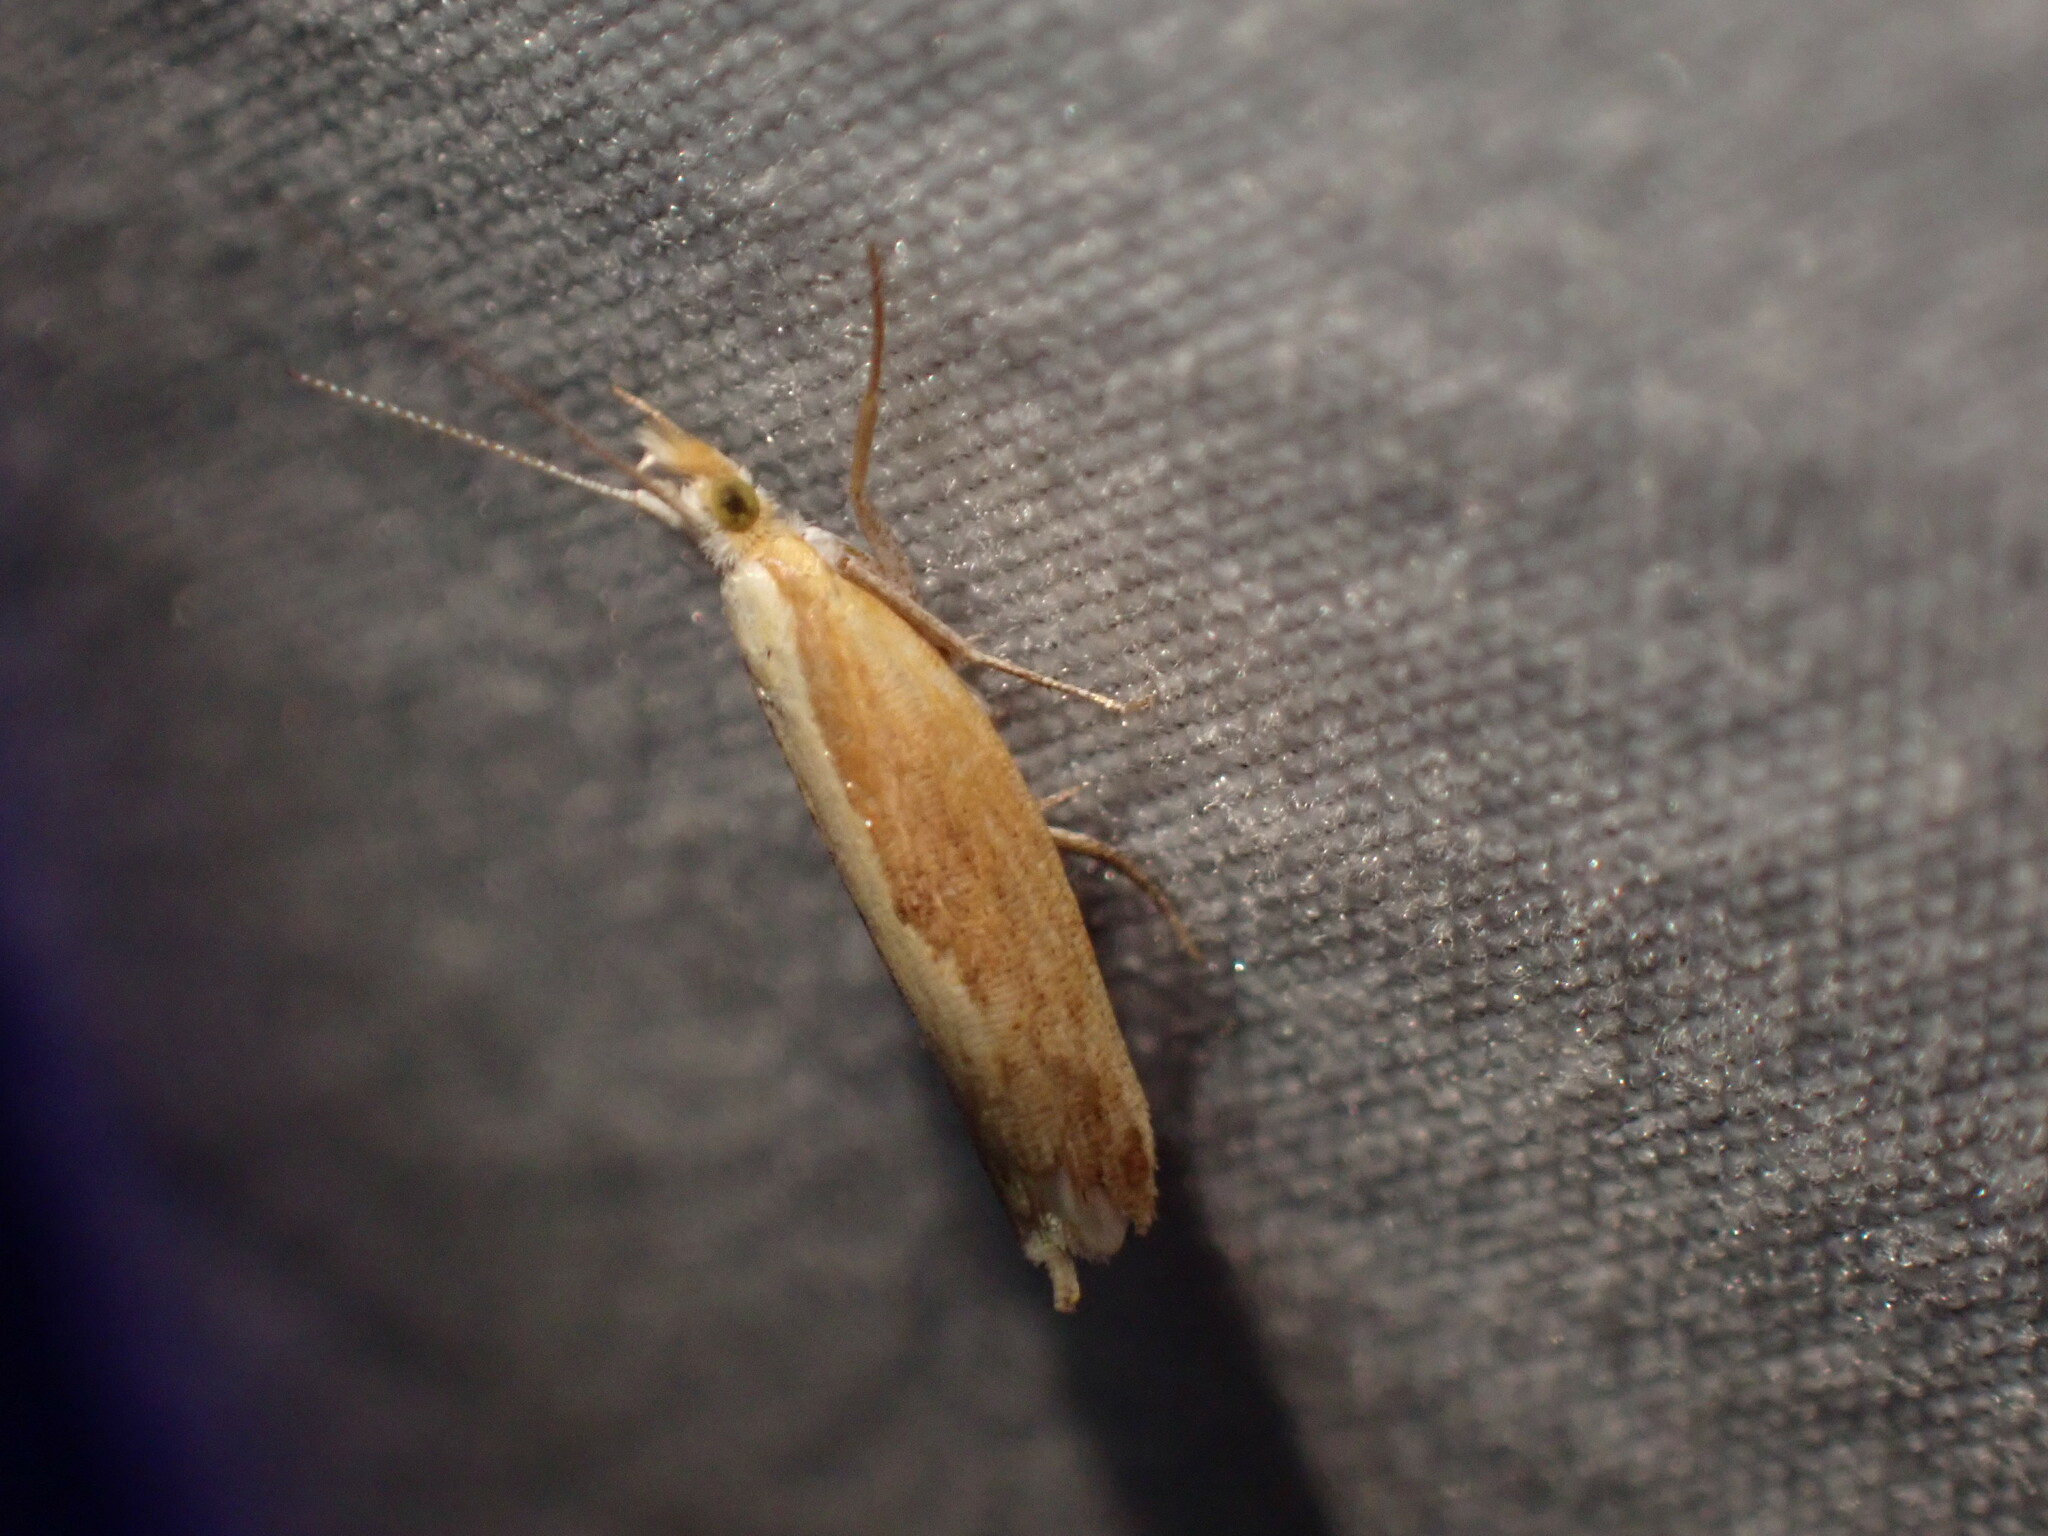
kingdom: Animalia
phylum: Arthropoda
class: Insecta
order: Lepidoptera
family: Ypsolophidae
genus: Ypsolopha
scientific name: Ypsolopha
